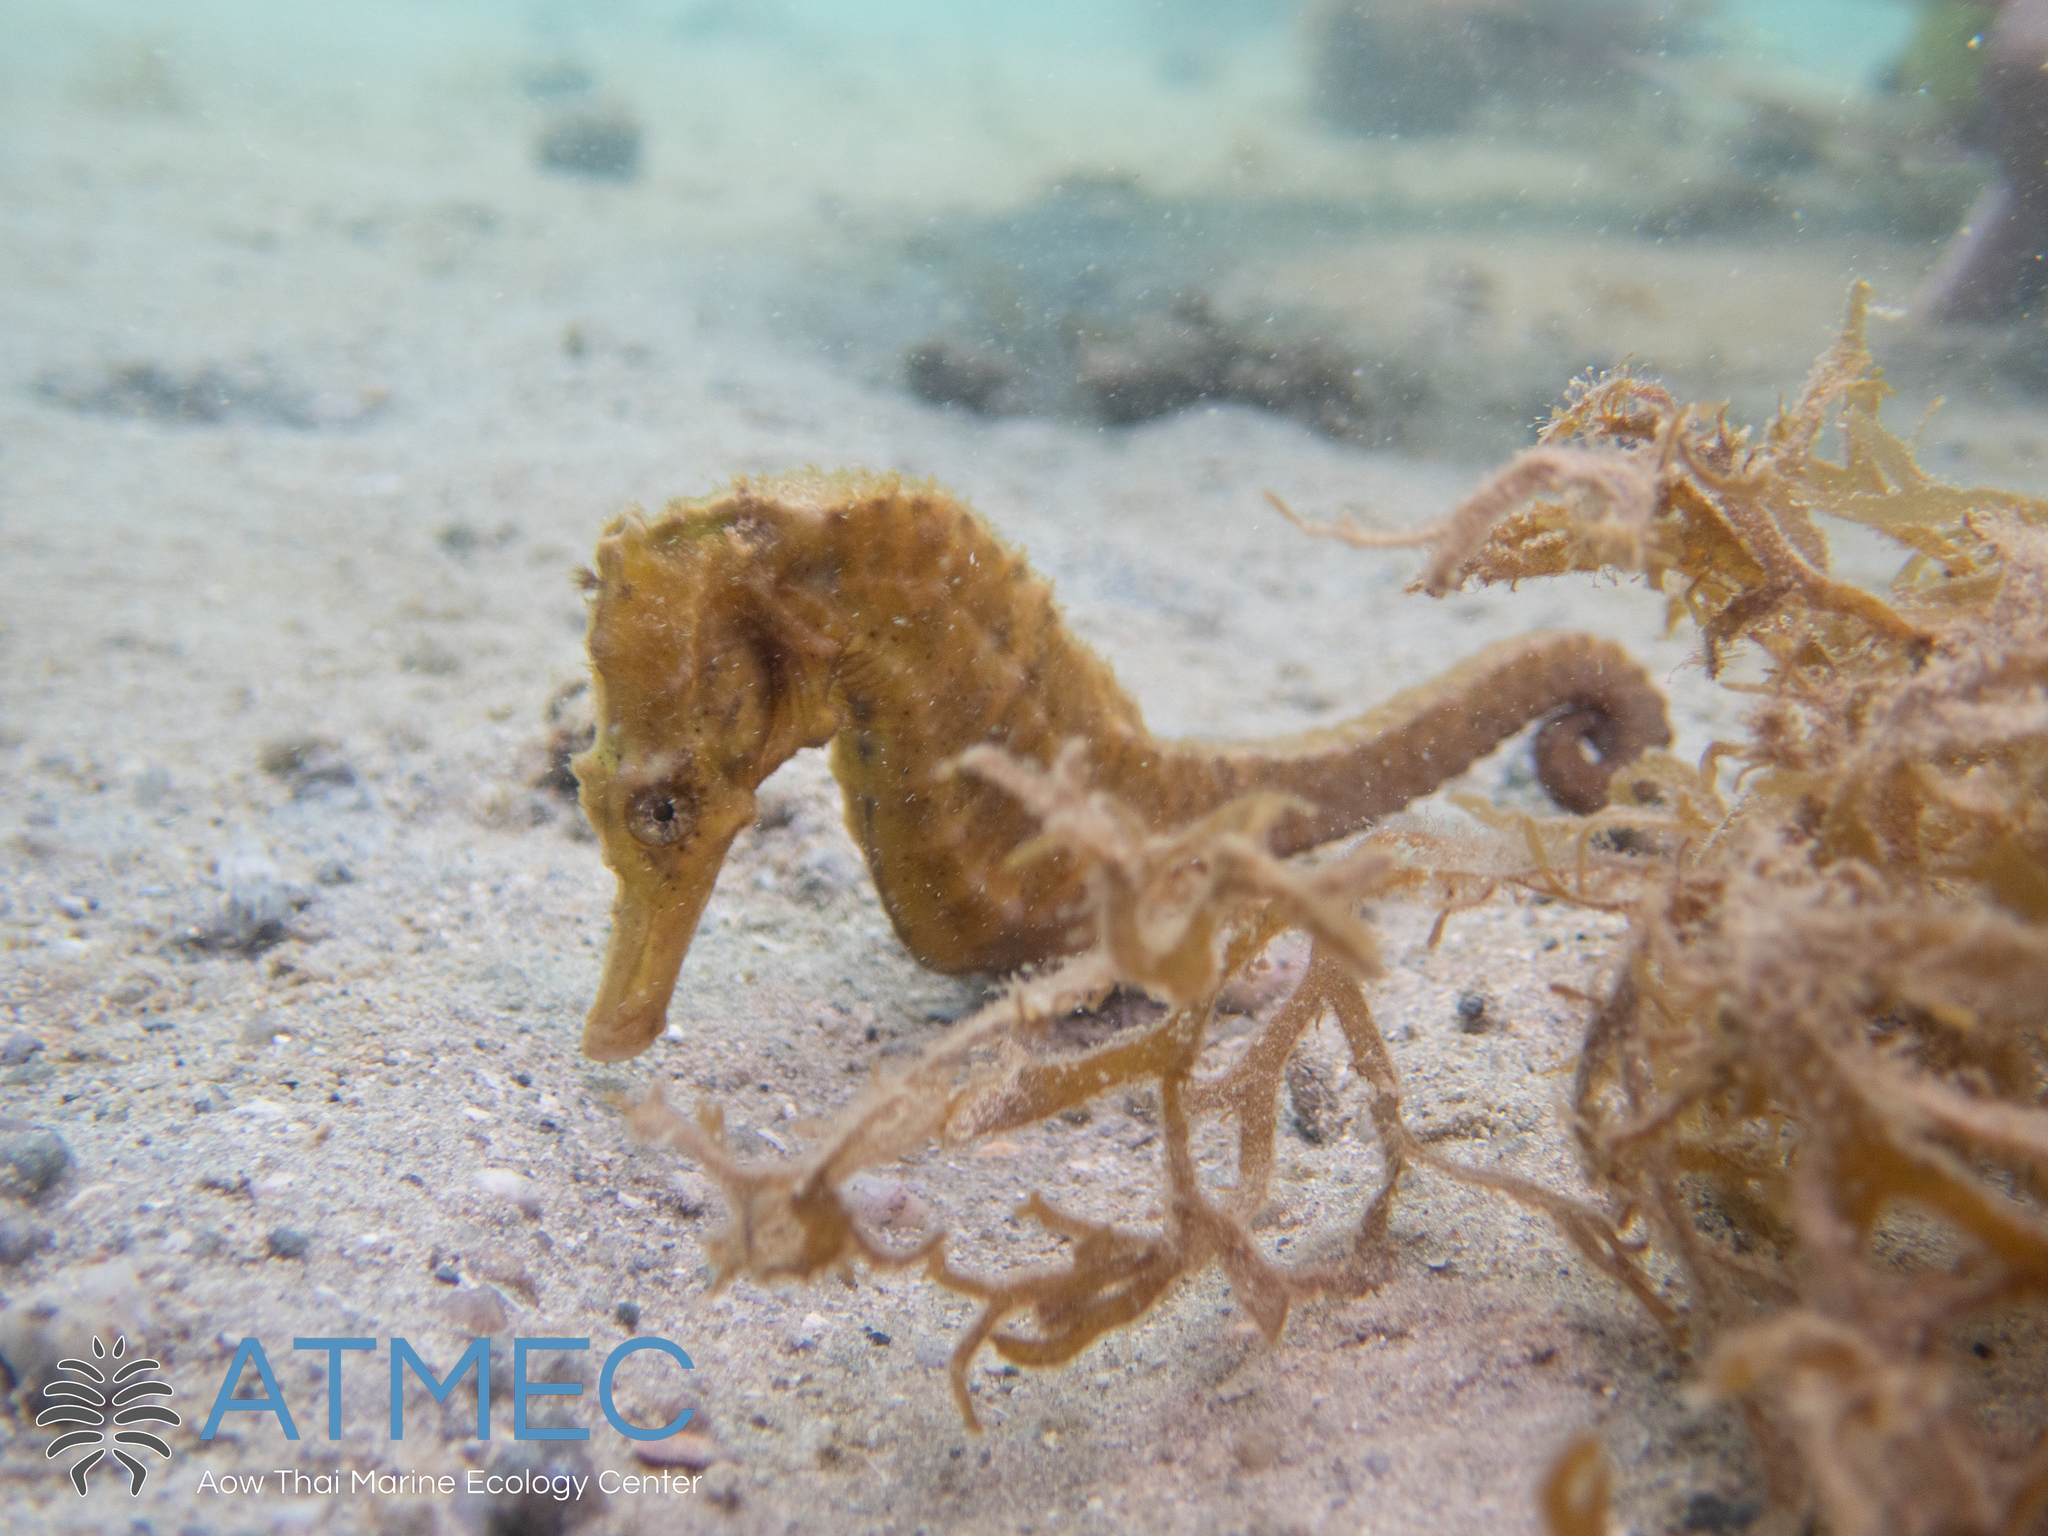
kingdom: Animalia
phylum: Chordata
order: Syngnathiformes
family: Syngnathidae
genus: Hippocampus
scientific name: Hippocampus kuda
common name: Spotted seahorse
